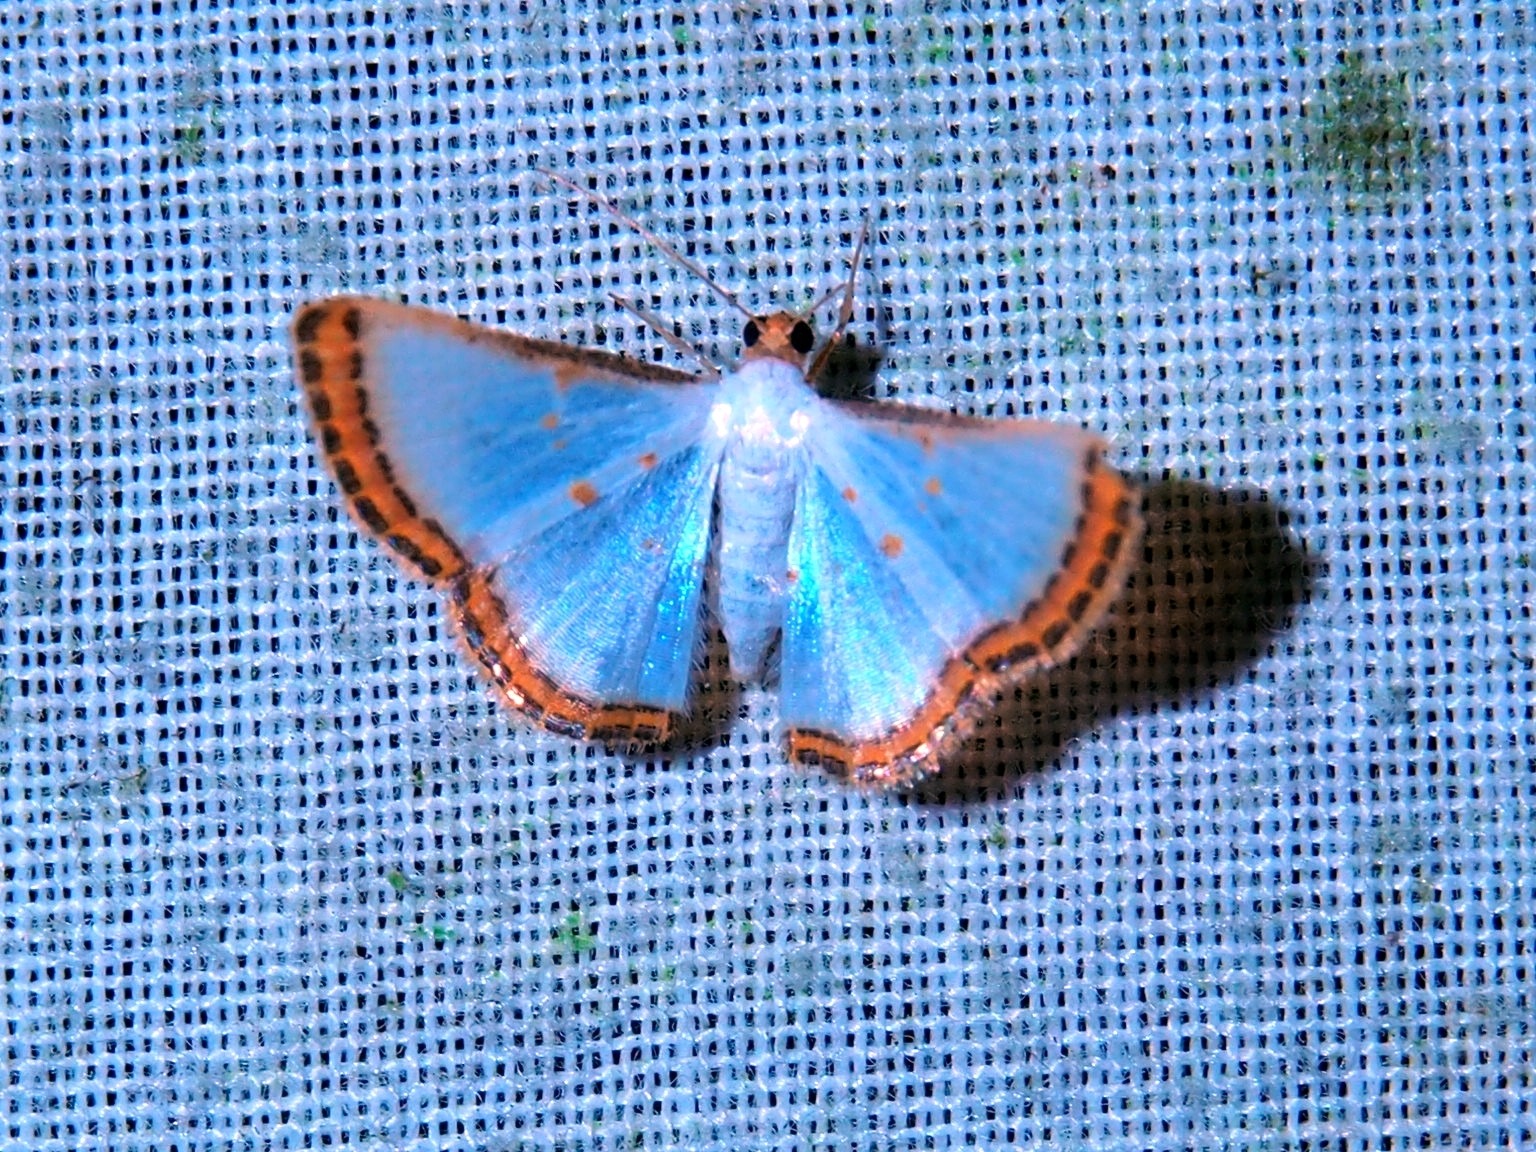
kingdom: Animalia
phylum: Arthropoda
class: Insecta
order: Lepidoptera
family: Geometridae
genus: Leuciris
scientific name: Leuciris institata
